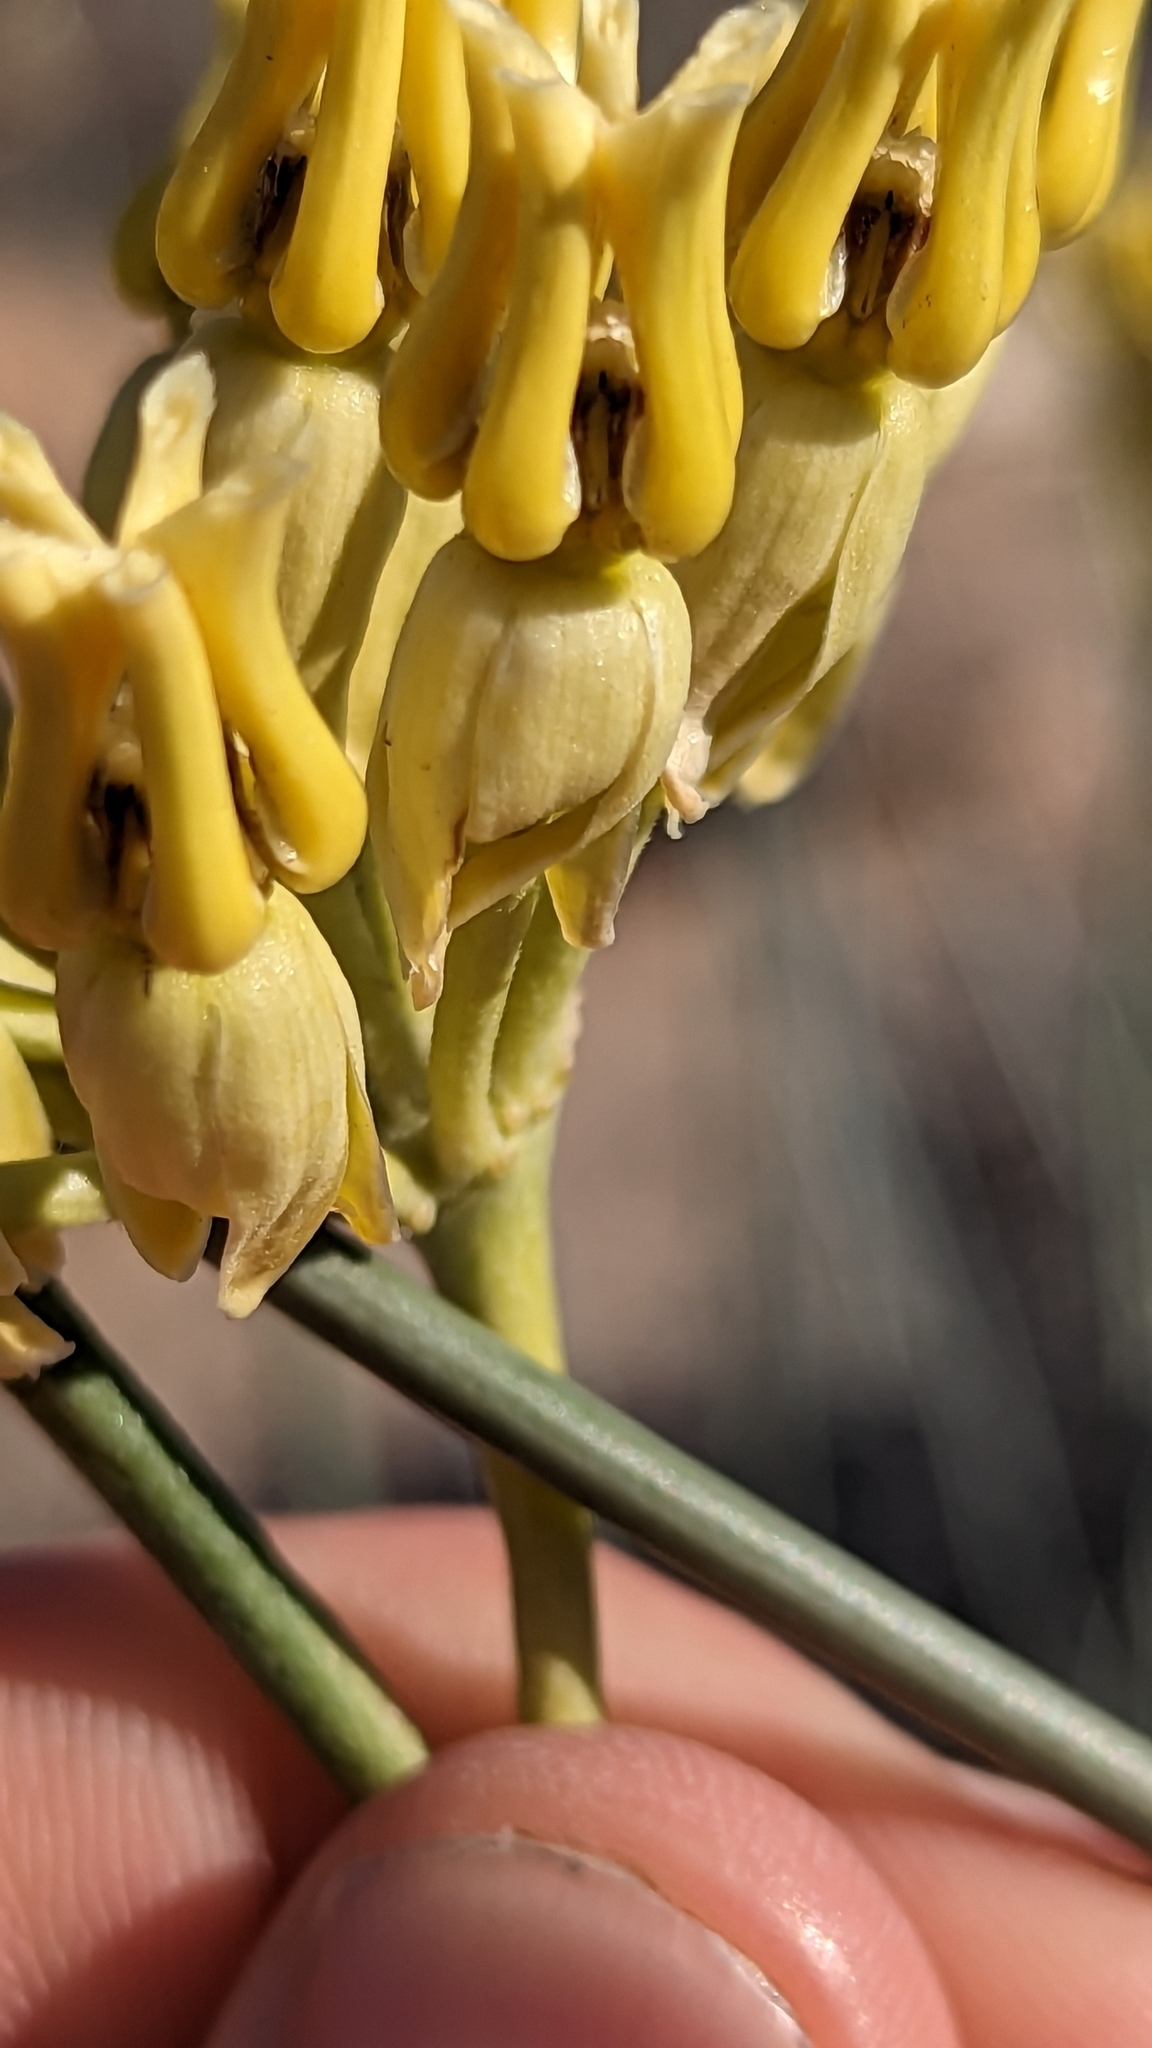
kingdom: Plantae
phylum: Tracheophyta
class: Magnoliopsida
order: Gentianales
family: Apocynaceae
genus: Asclepias
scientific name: Asclepias subulata
